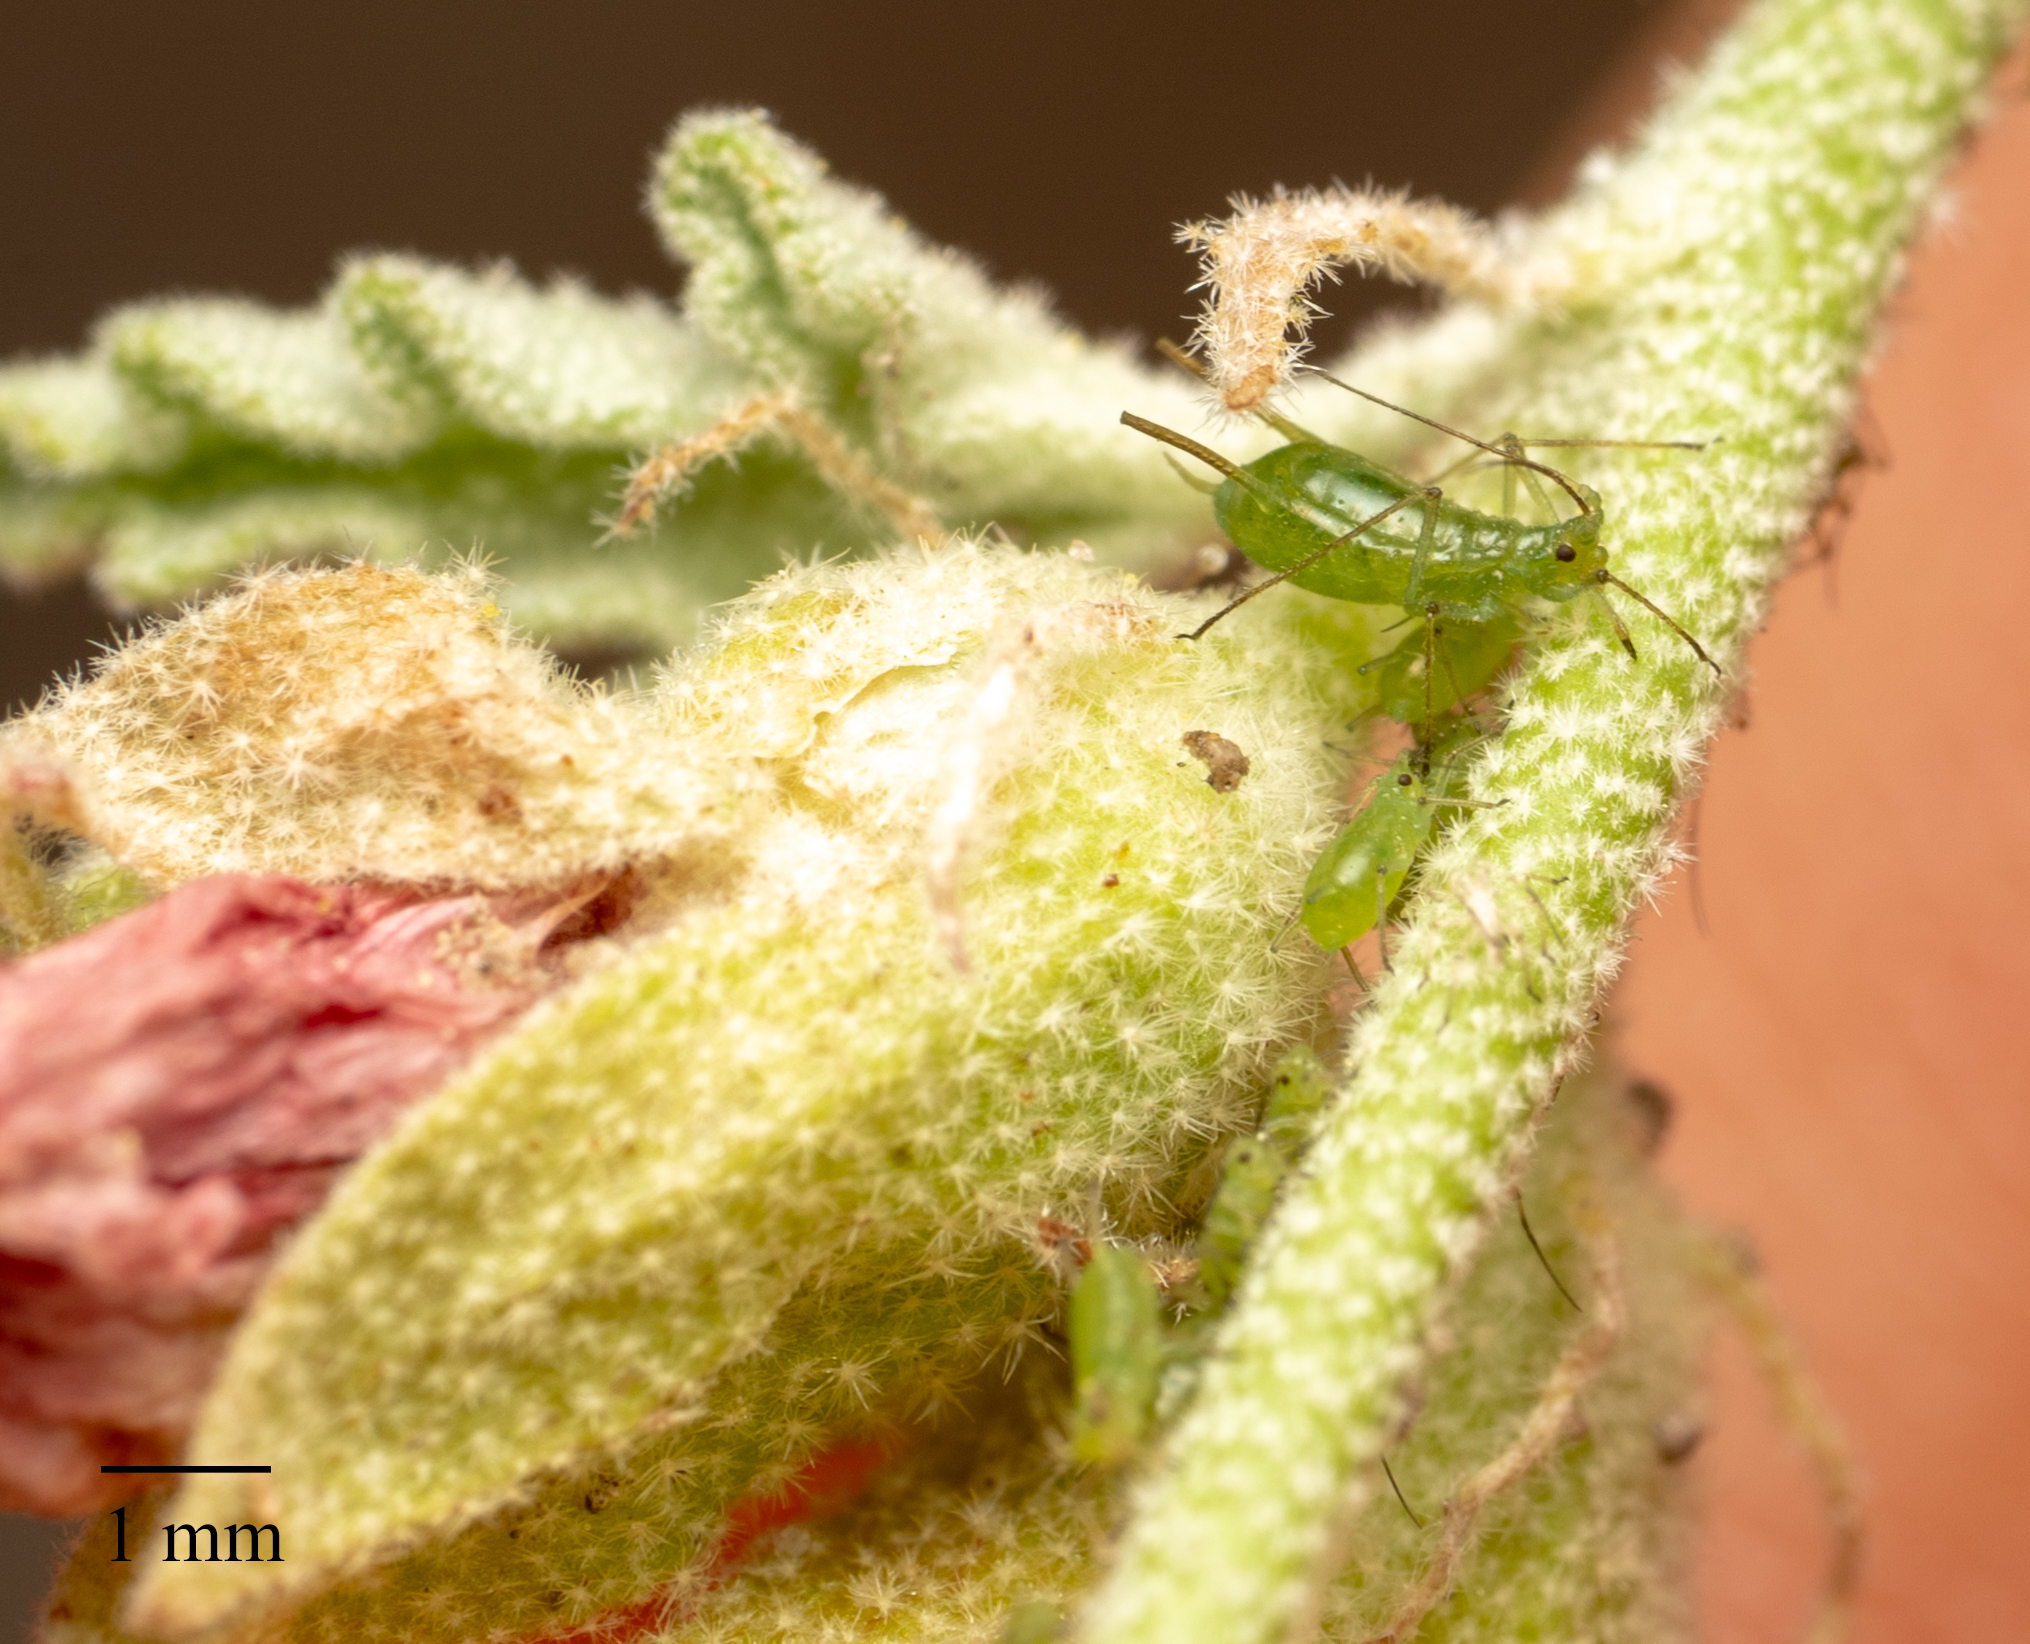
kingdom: Animalia
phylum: Arthropoda
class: Insecta
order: Hemiptera
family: Aphididae
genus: Uroleucon
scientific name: Uroleucon erigeronense
